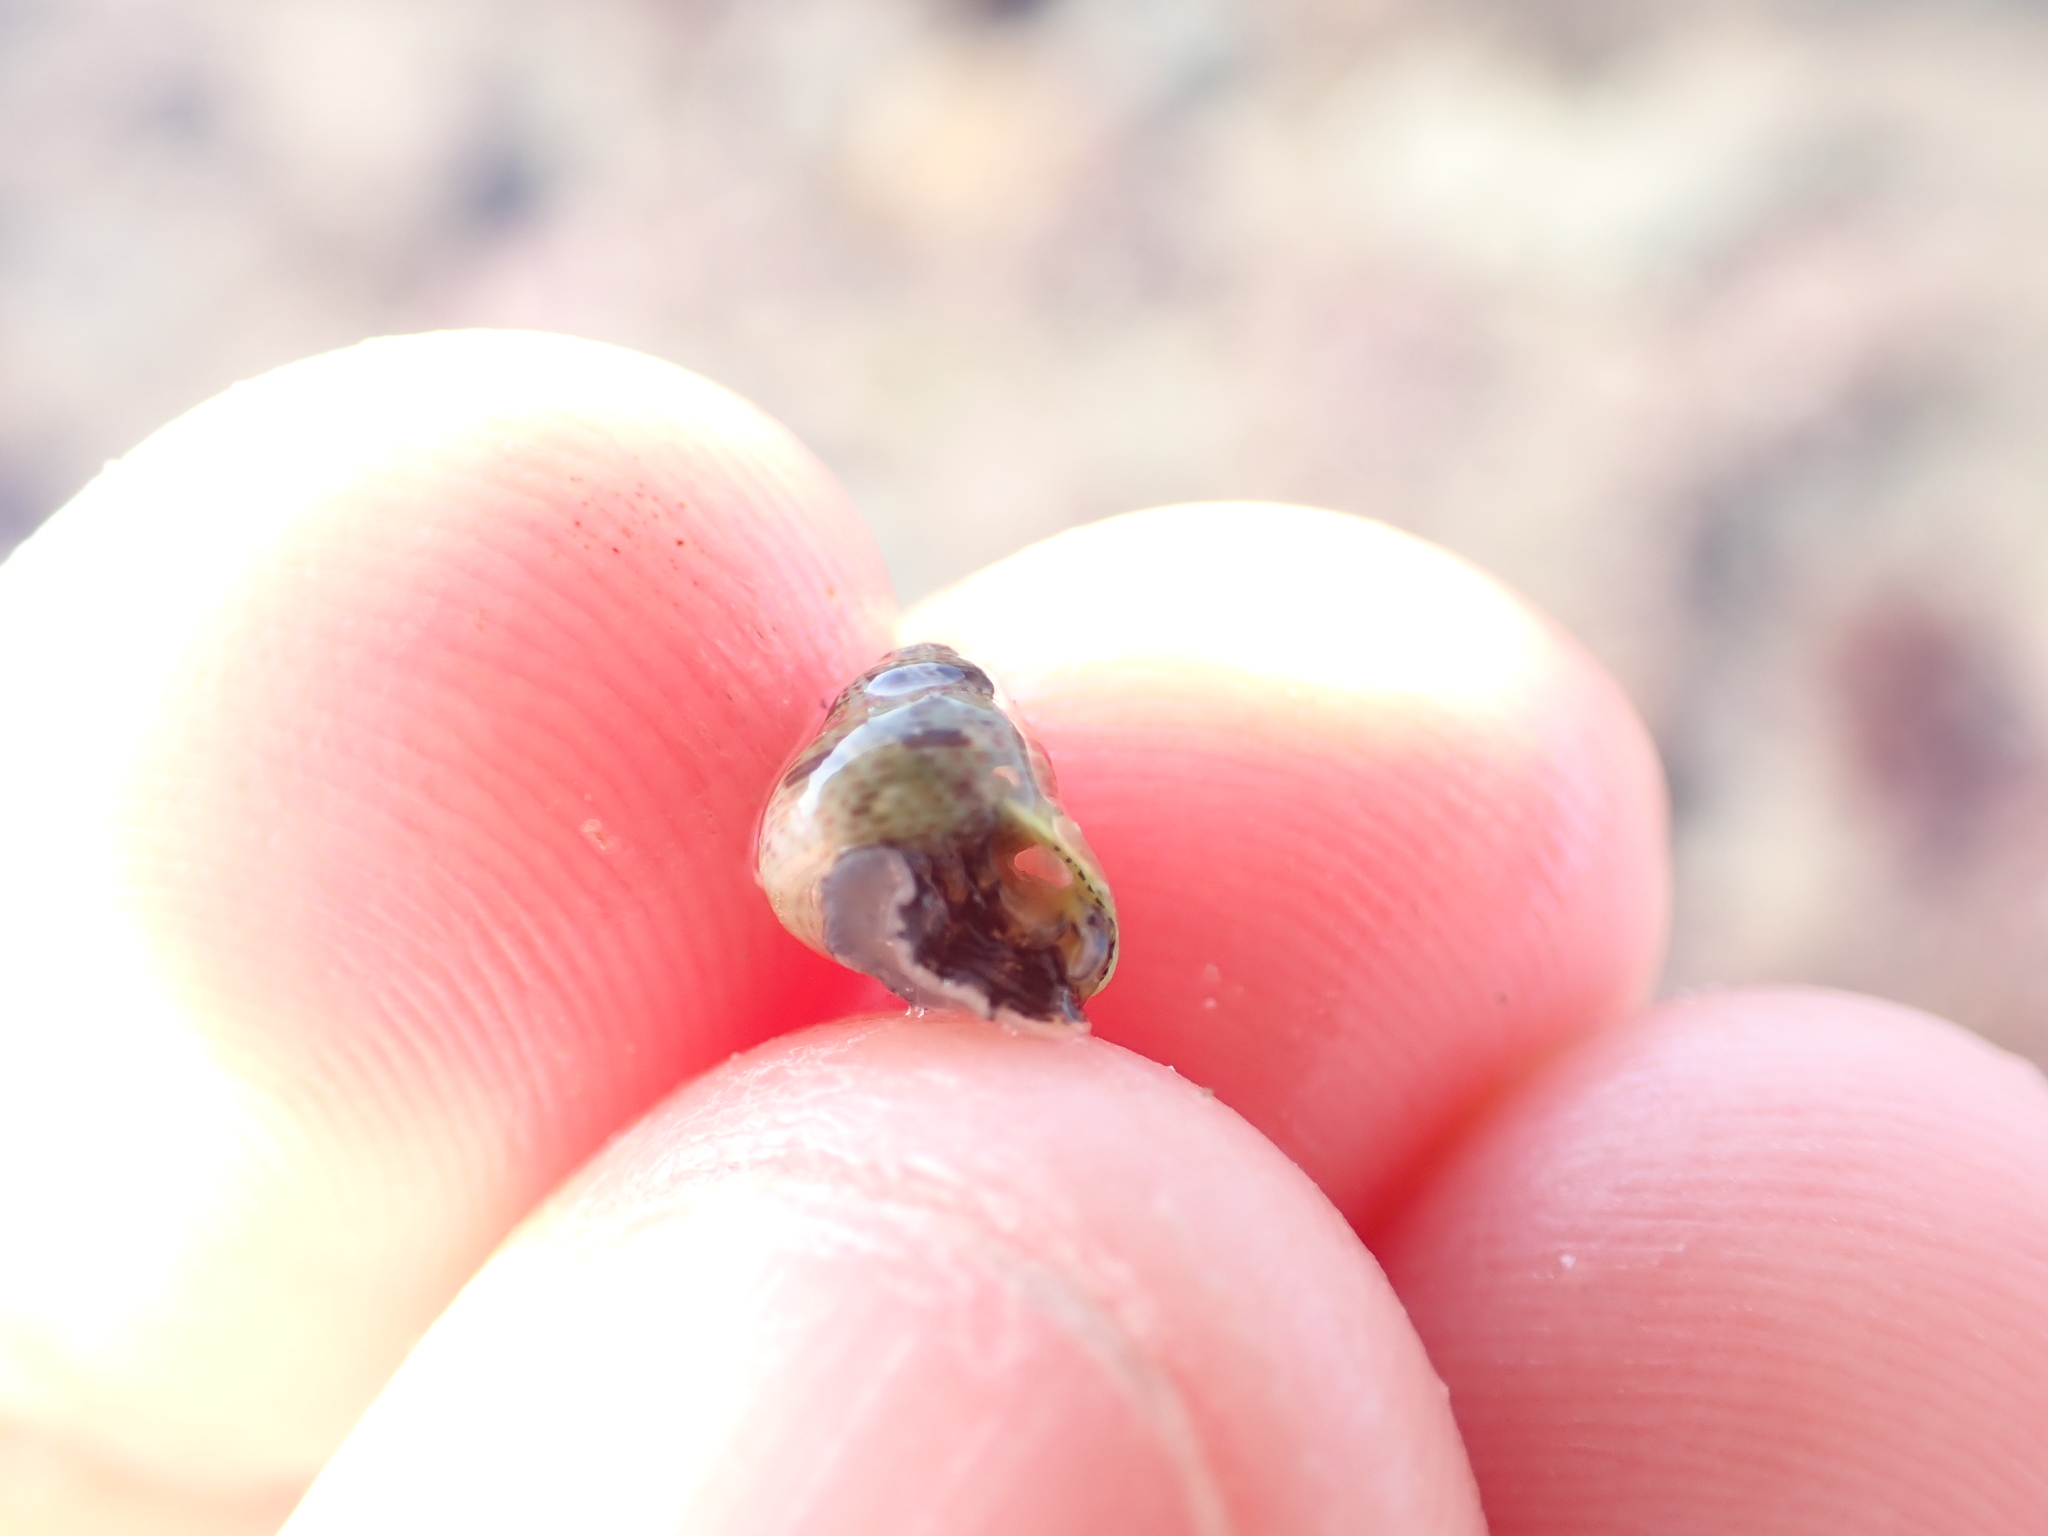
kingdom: Animalia
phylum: Mollusca
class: Gastropoda
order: Trochida
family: Trochidae
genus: Micrelenchus
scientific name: Micrelenchus tessellatus
